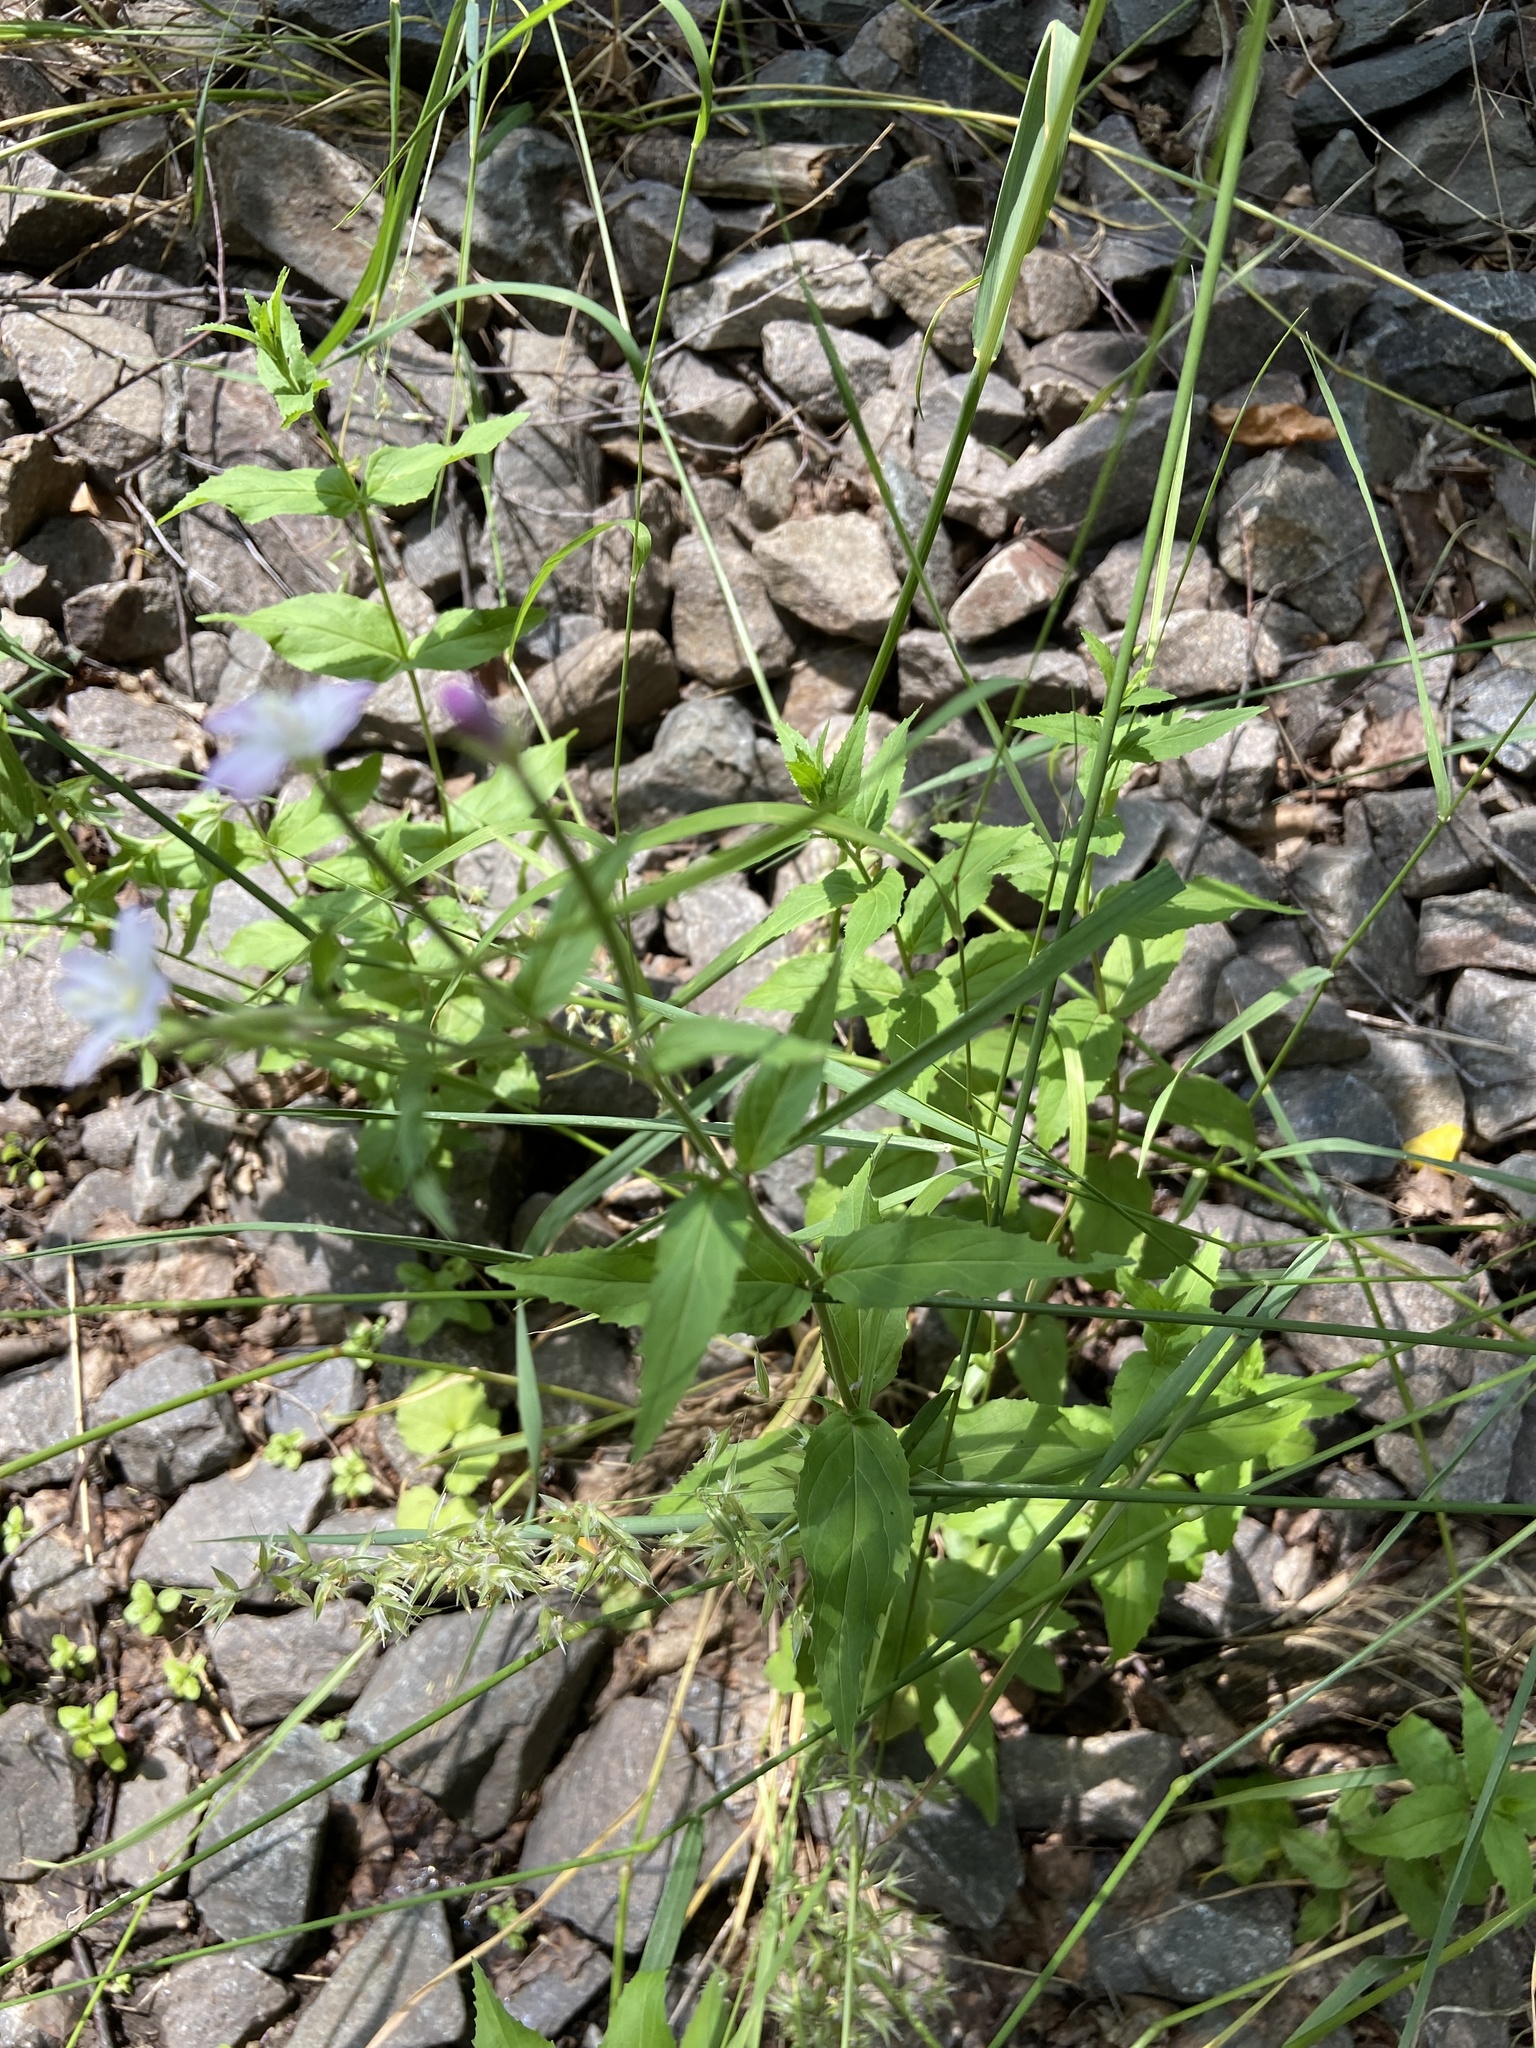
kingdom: Plantae
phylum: Tracheophyta
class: Magnoliopsida
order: Myrtales
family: Onagraceae
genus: Epilobium
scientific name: Epilobium montanum
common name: Broad-leaved willowherb
